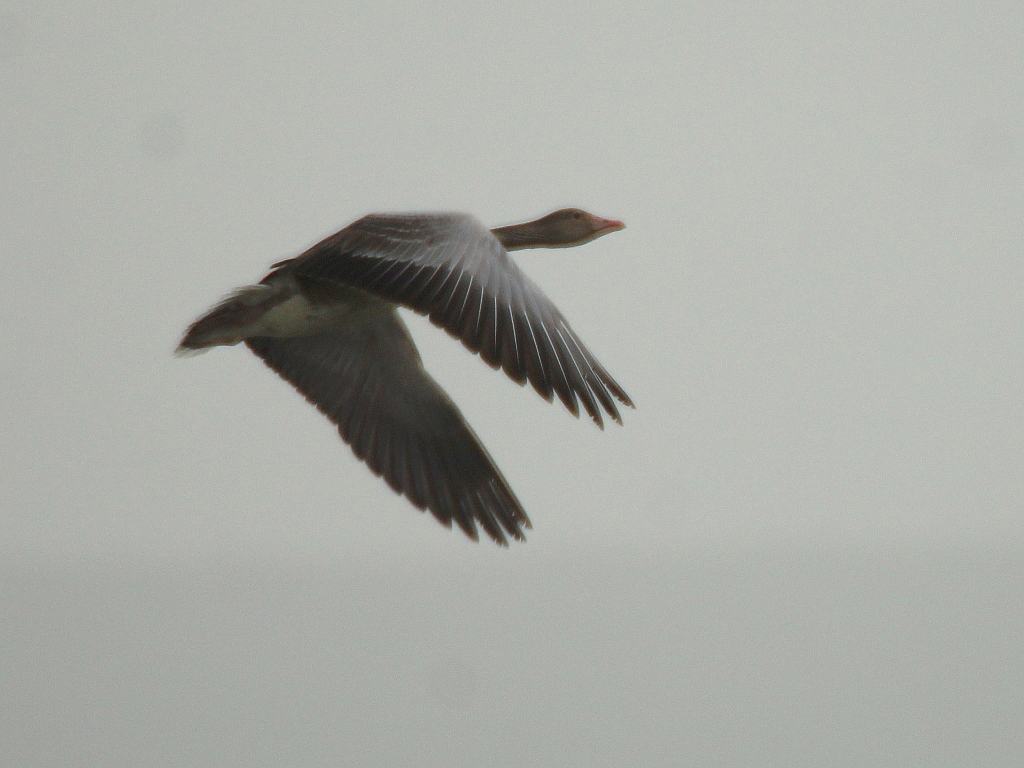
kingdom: Animalia
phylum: Chordata
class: Aves
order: Anseriformes
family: Anatidae
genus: Anser
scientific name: Anser anser
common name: Greylag goose
